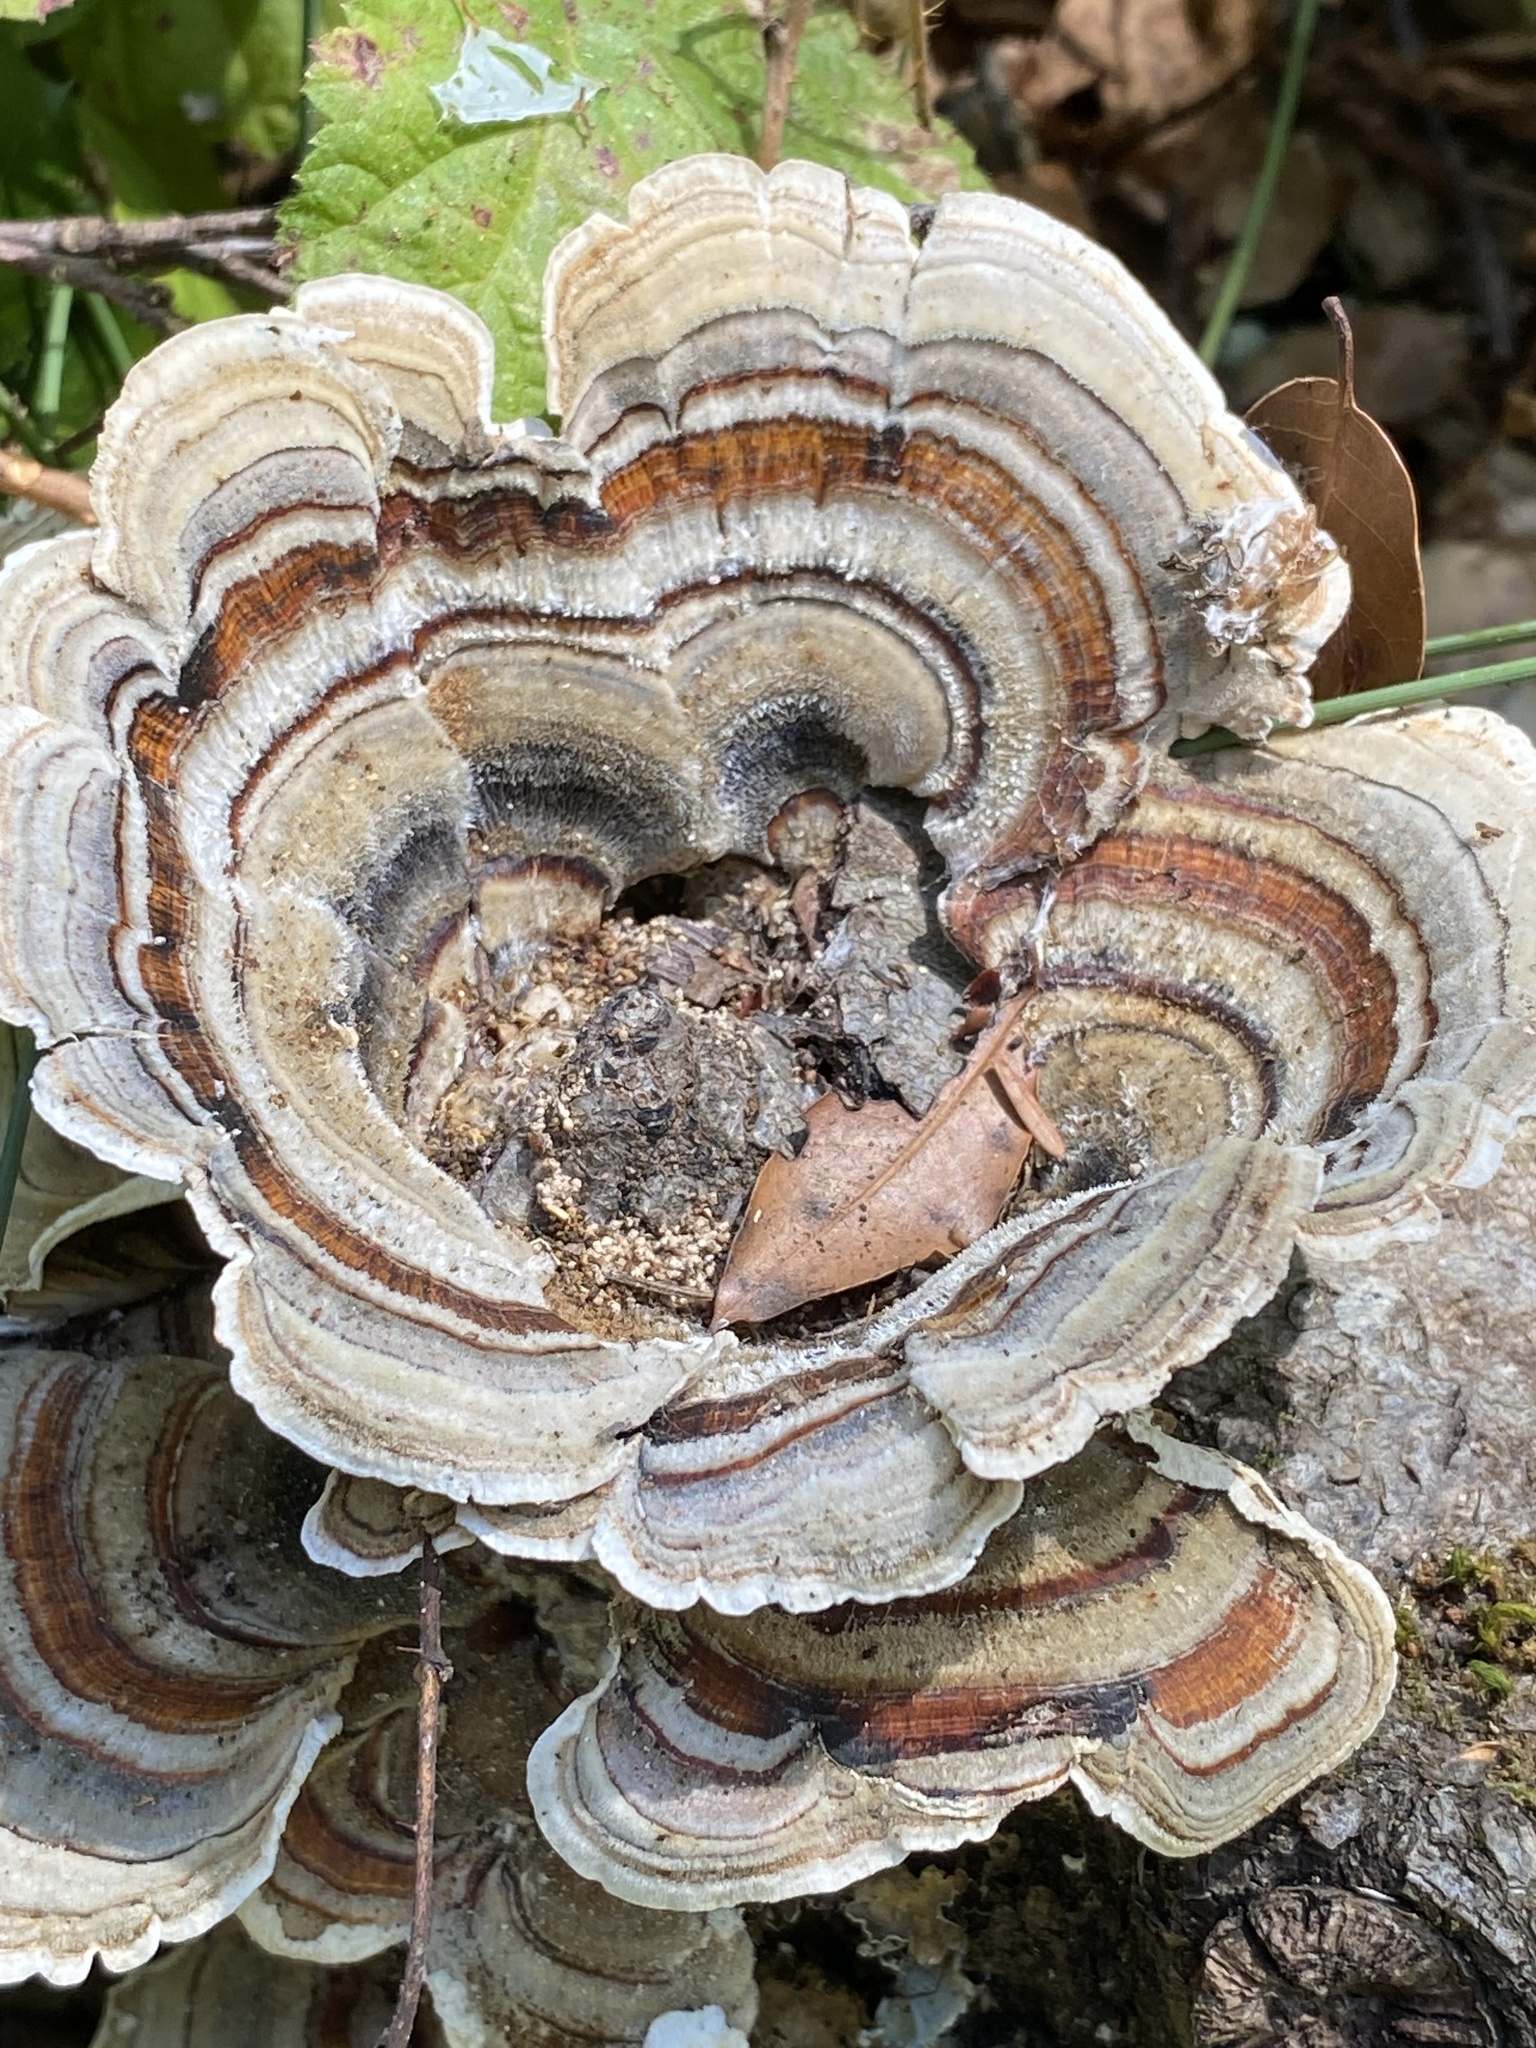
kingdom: Fungi
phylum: Basidiomycota
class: Agaricomycetes
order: Polyporales
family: Polyporaceae
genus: Trametes
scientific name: Trametes versicolor
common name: Turkeytail
